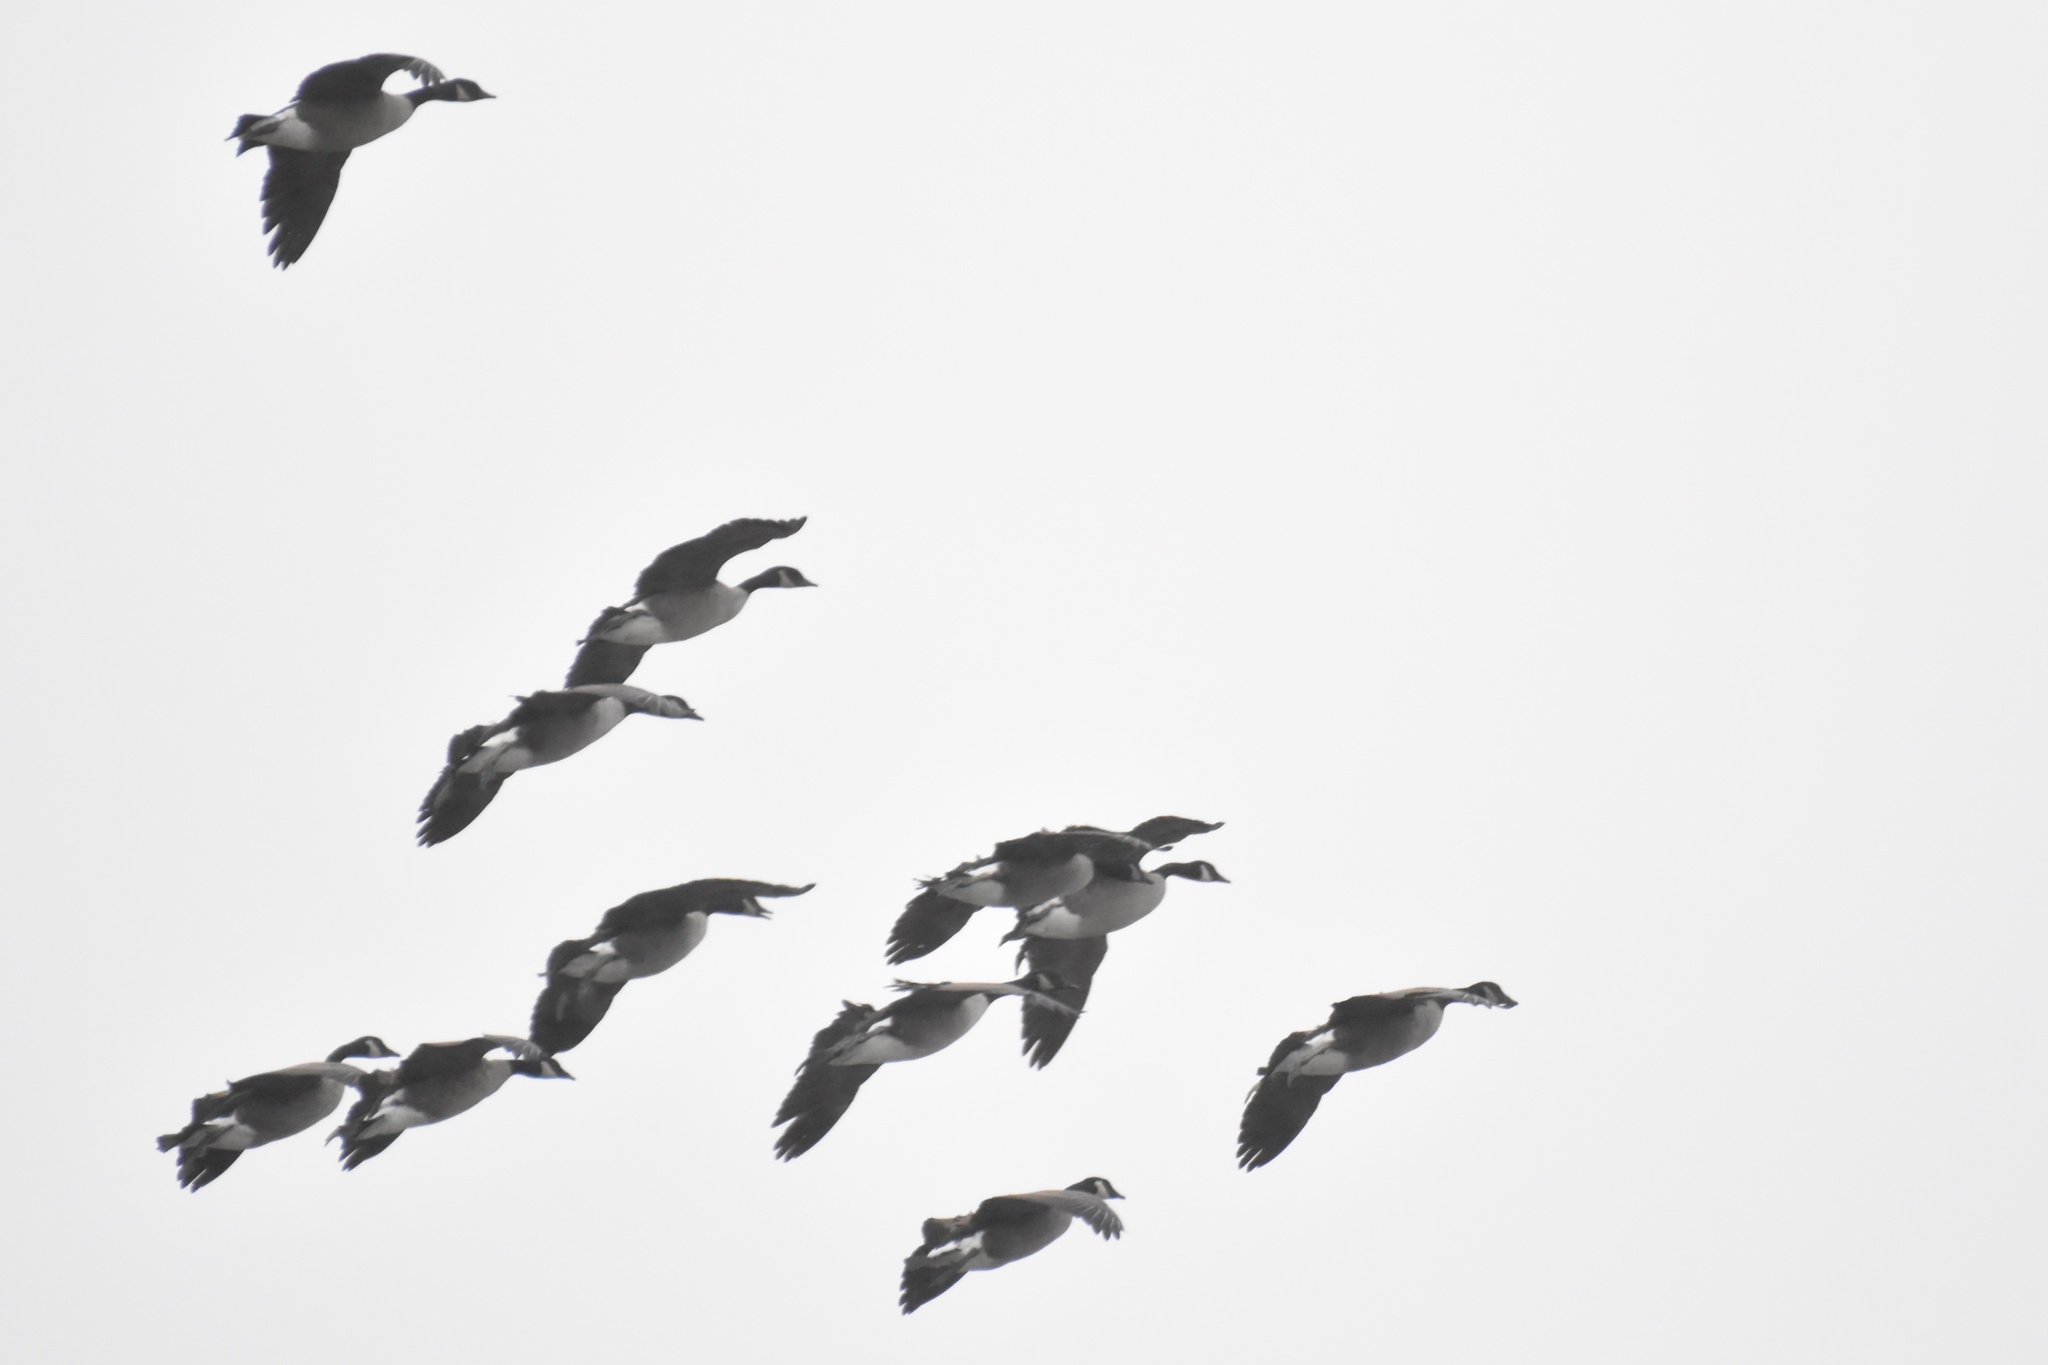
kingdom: Animalia
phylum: Chordata
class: Aves
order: Anseriformes
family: Anatidae
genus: Branta
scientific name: Branta canadensis
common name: Canada goose
